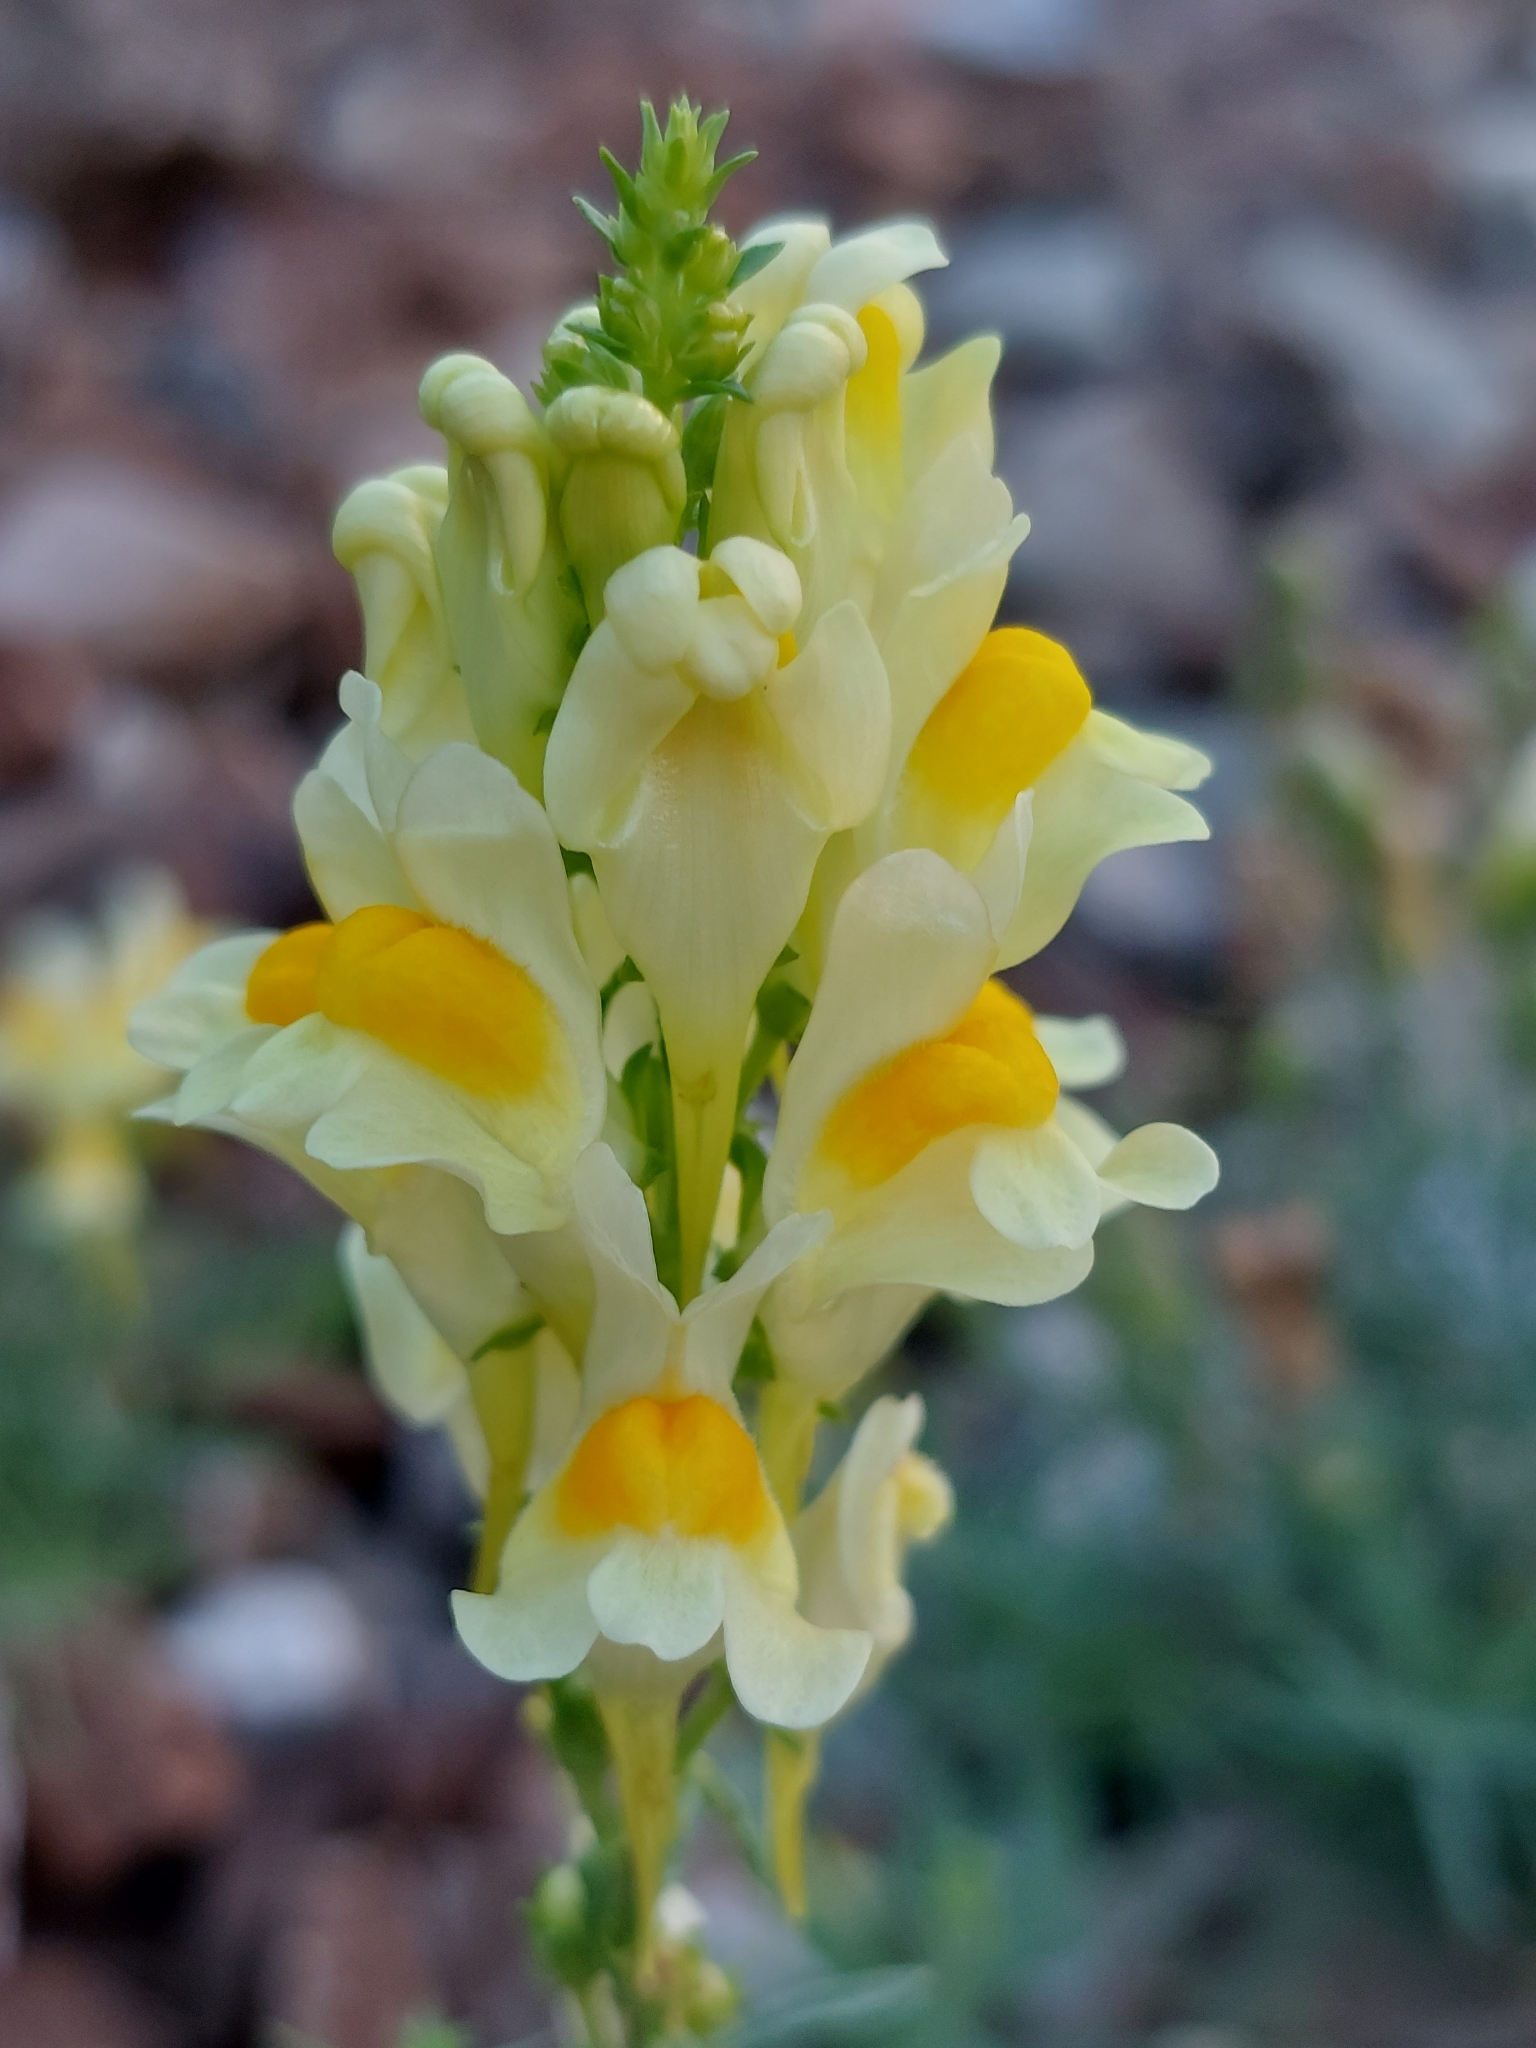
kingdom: Plantae
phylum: Tracheophyta
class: Magnoliopsida
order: Lamiales
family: Plantaginaceae
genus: Linaria
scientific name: Linaria vulgaris
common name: Butter and eggs
